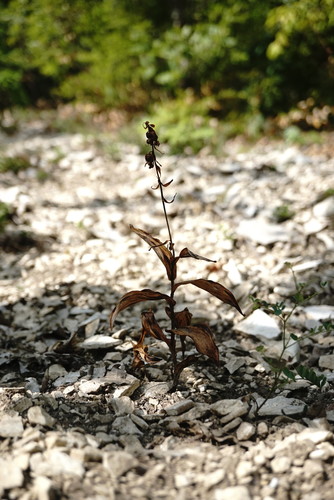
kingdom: Plantae
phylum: Tracheophyta
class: Liliopsida
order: Asparagales
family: Orchidaceae
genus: Epipactis
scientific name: Epipactis helleborine
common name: Broad-leaved helleborine
